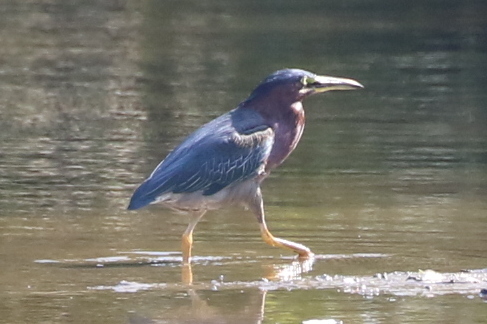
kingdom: Animalia
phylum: Chordata
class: Aves
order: Pelecaniformes
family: Ardeidae
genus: Butorides
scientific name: Butorides virescens
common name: Green heron
